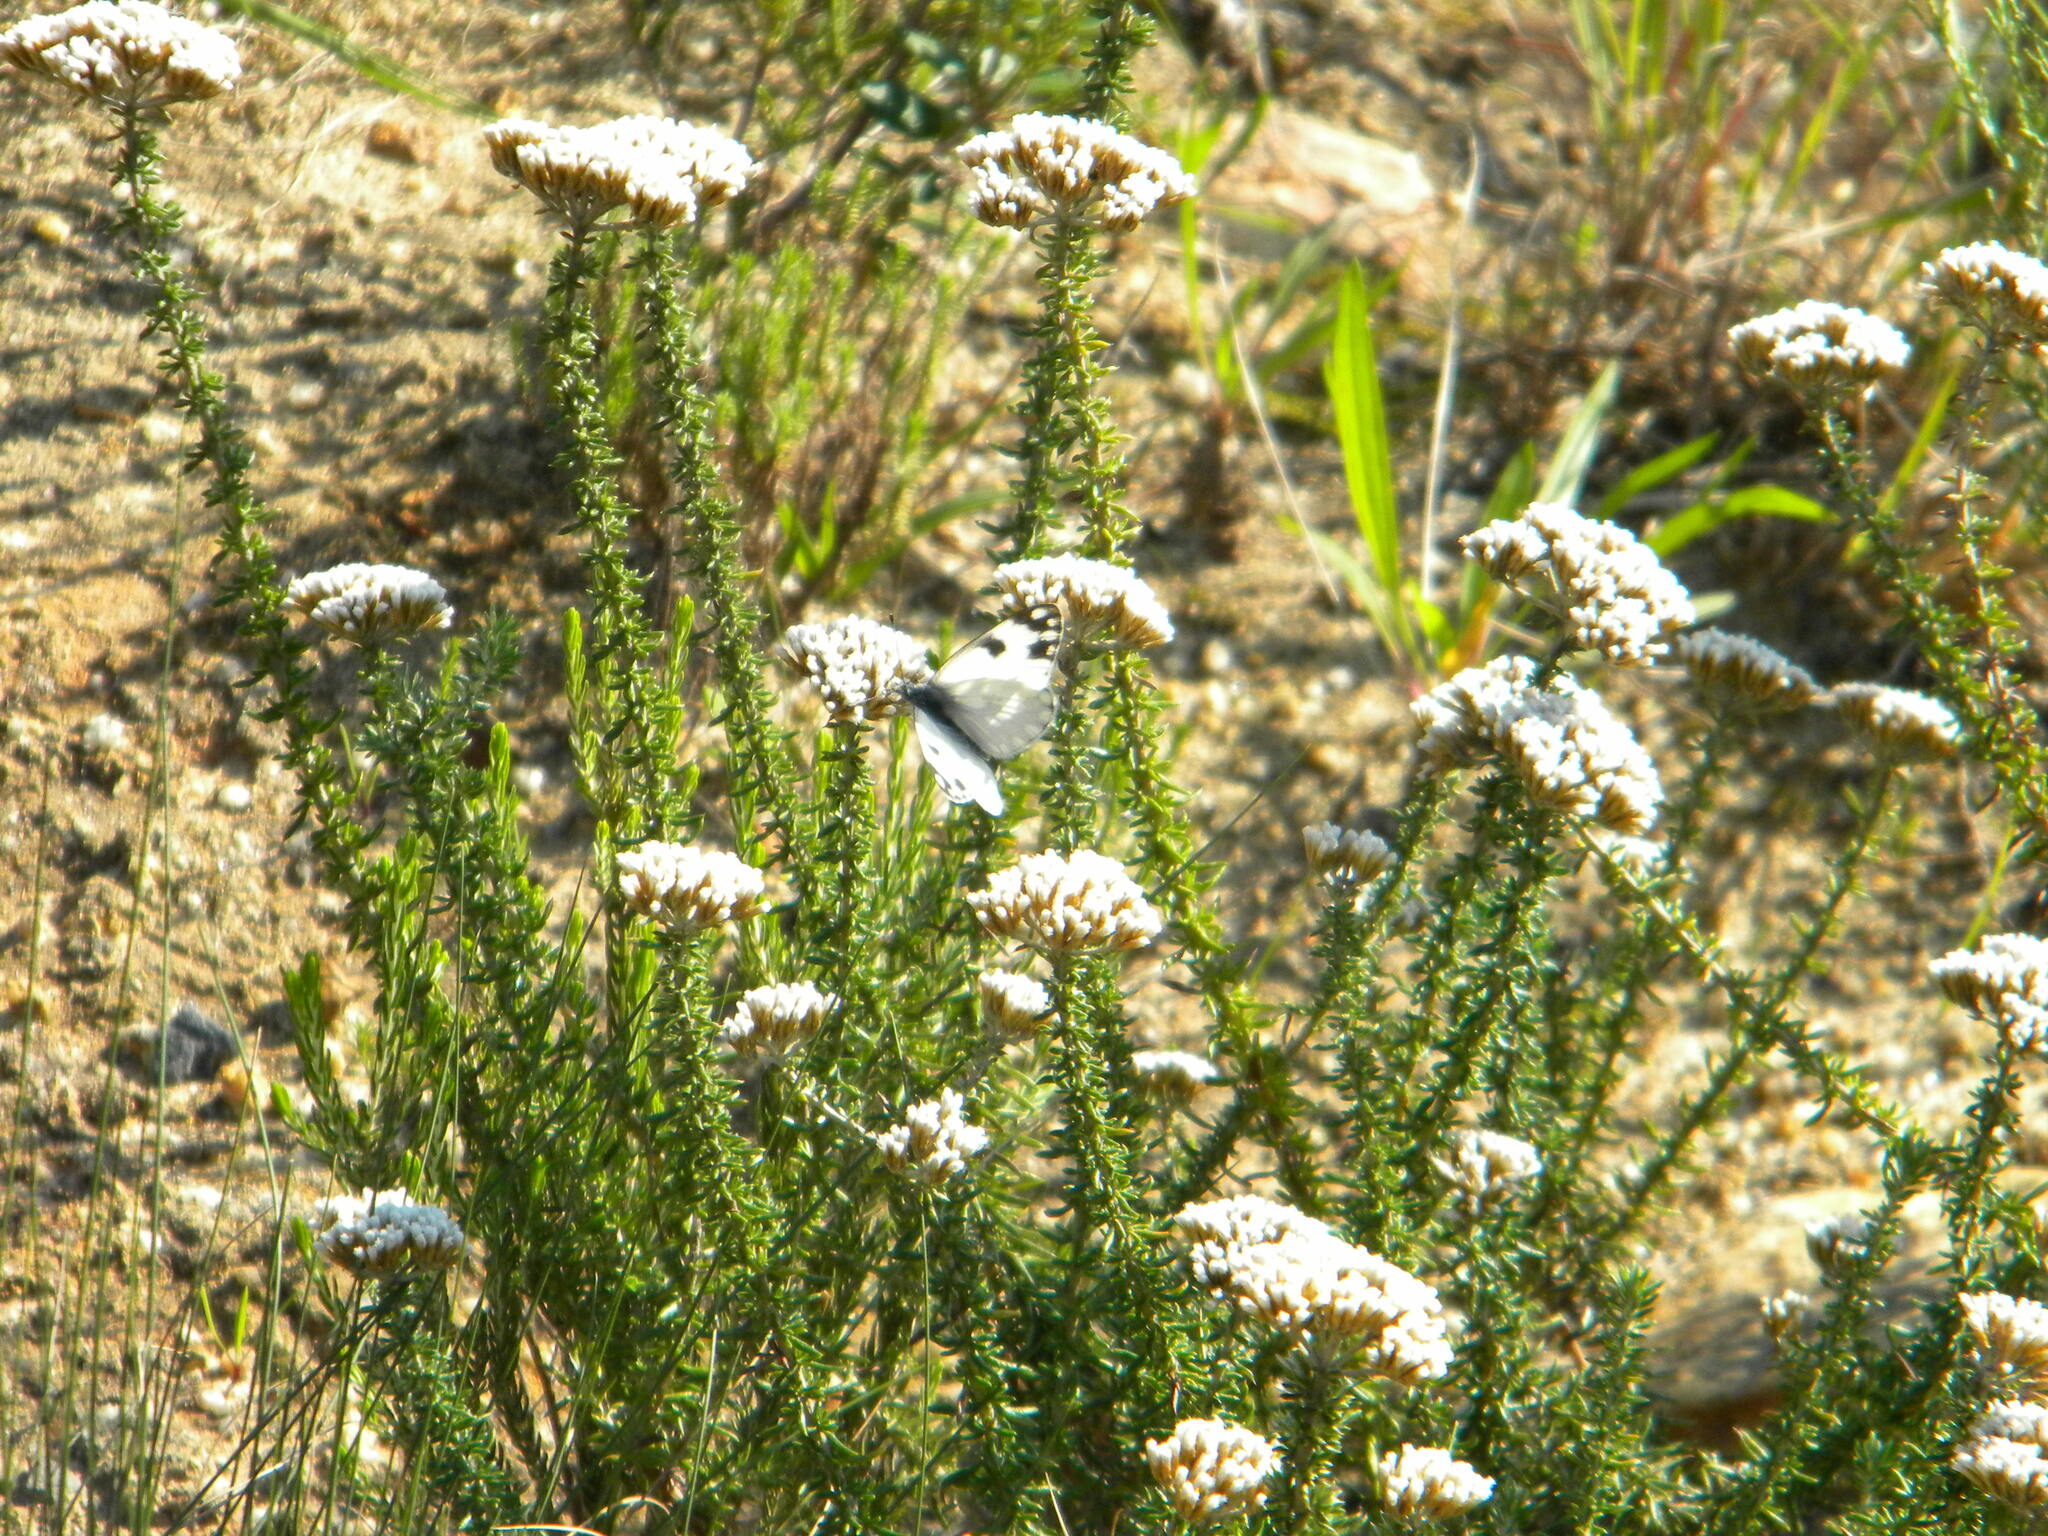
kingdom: Animalia
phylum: Arthropoda
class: Insecta
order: Lepidoptera
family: Pieridae
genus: Pontia
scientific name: Pontia helice
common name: Meadow white
